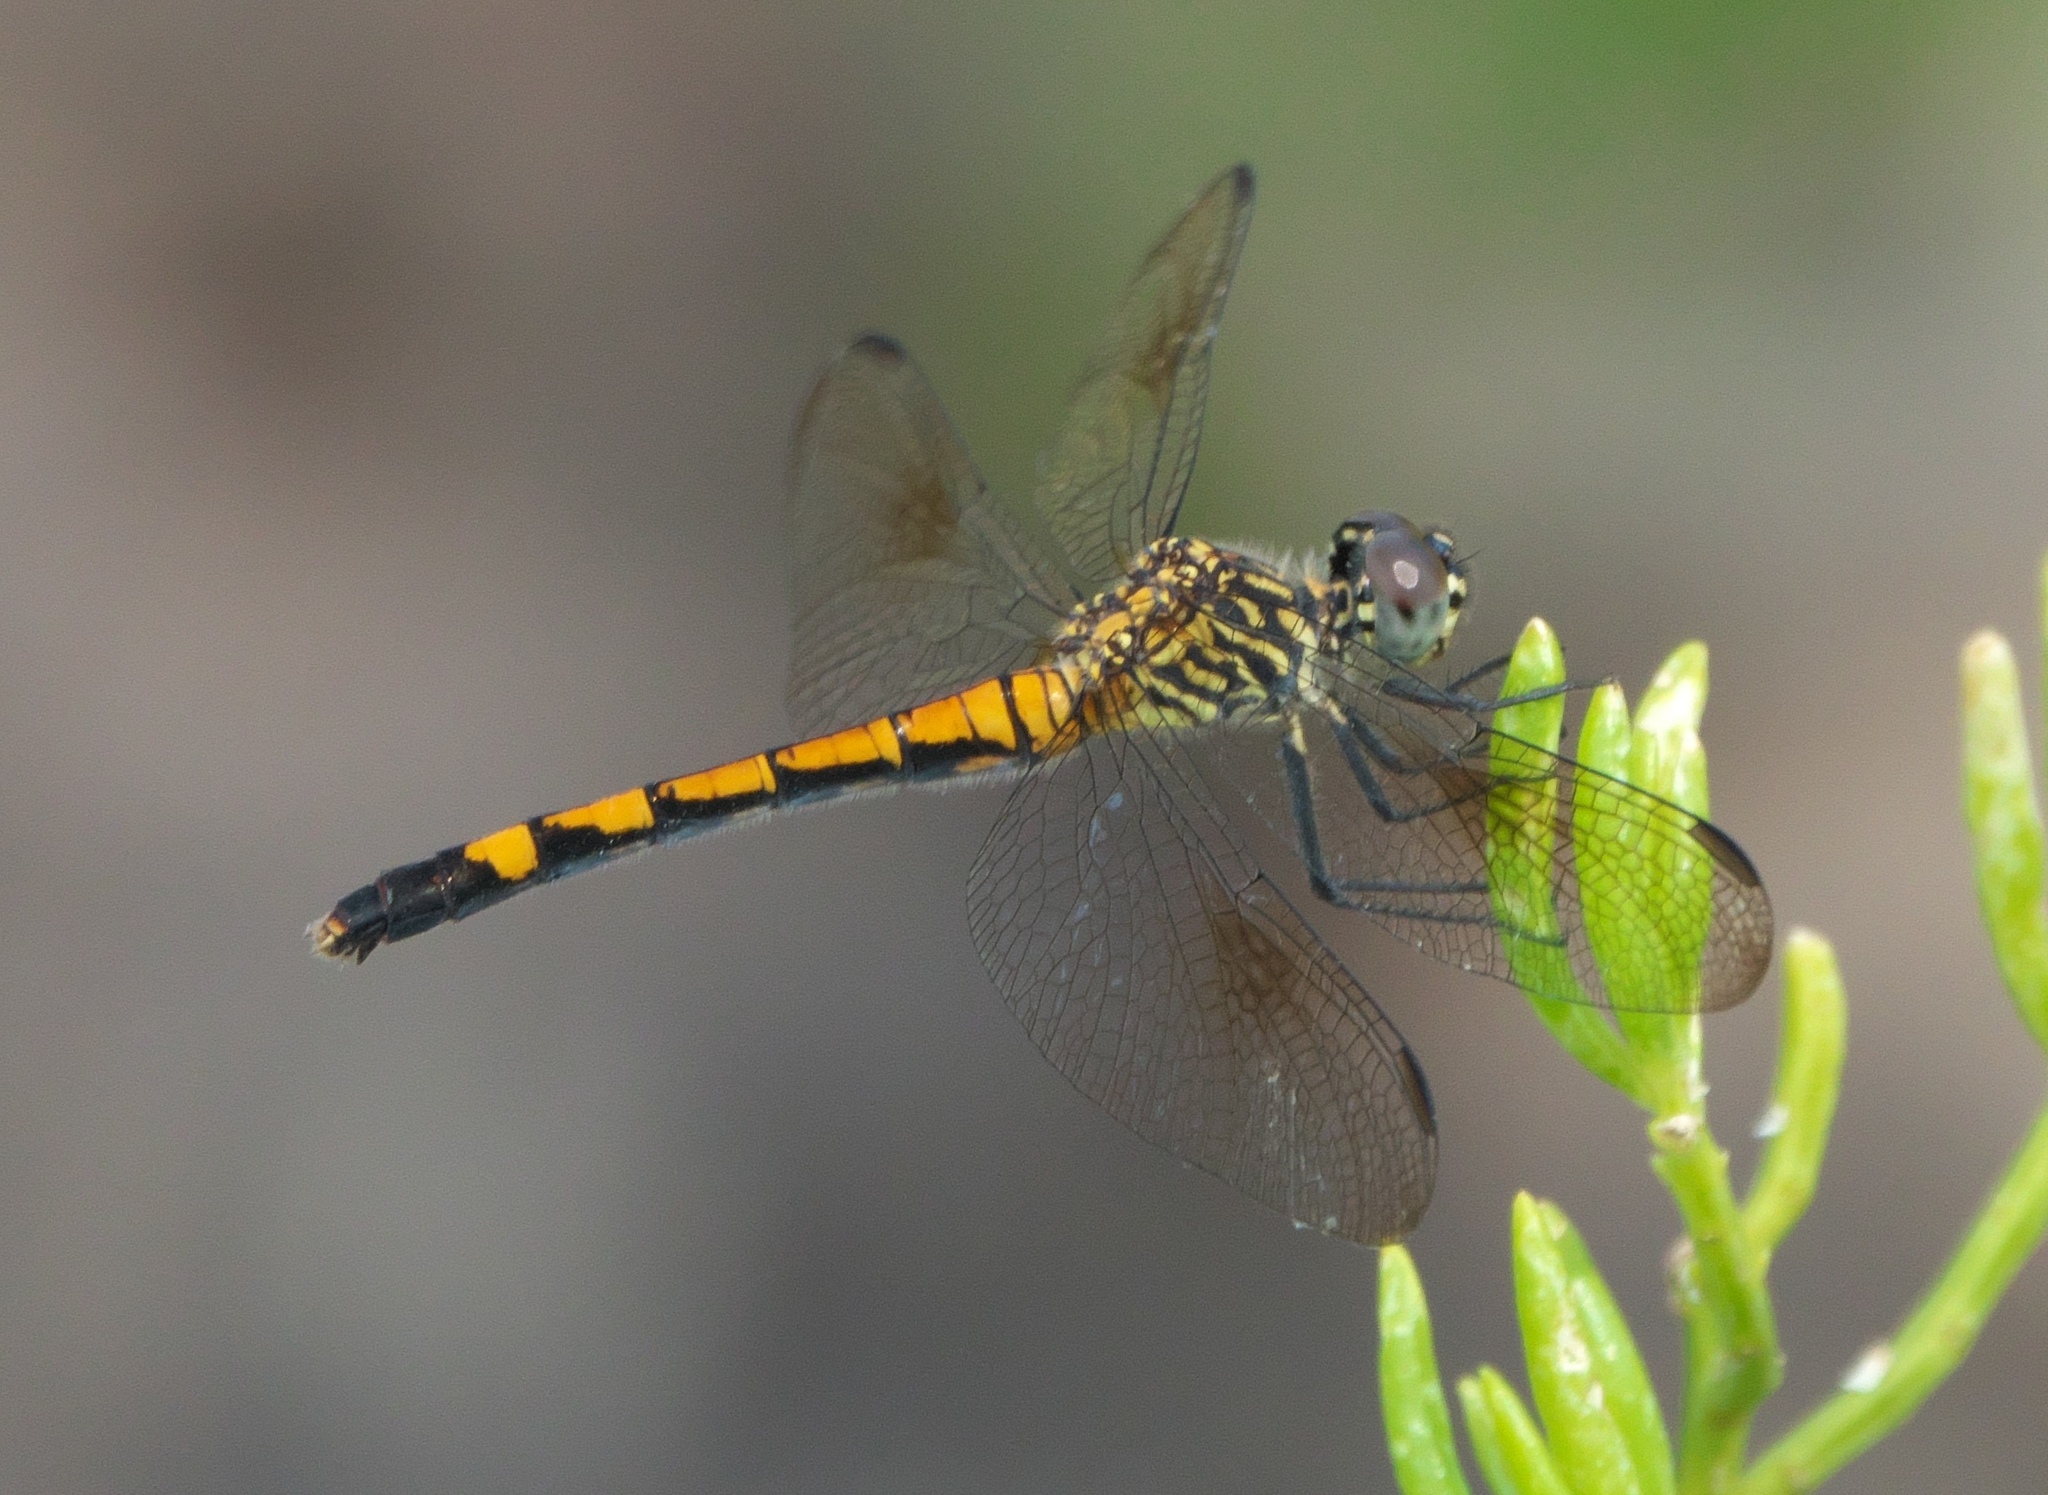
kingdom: Animalia
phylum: Arthropoda
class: Insecta
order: Odonata
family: Libellulidae
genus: Erythrodiplax
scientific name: Erythrodiplax berenice
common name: Seaside dragonlet
